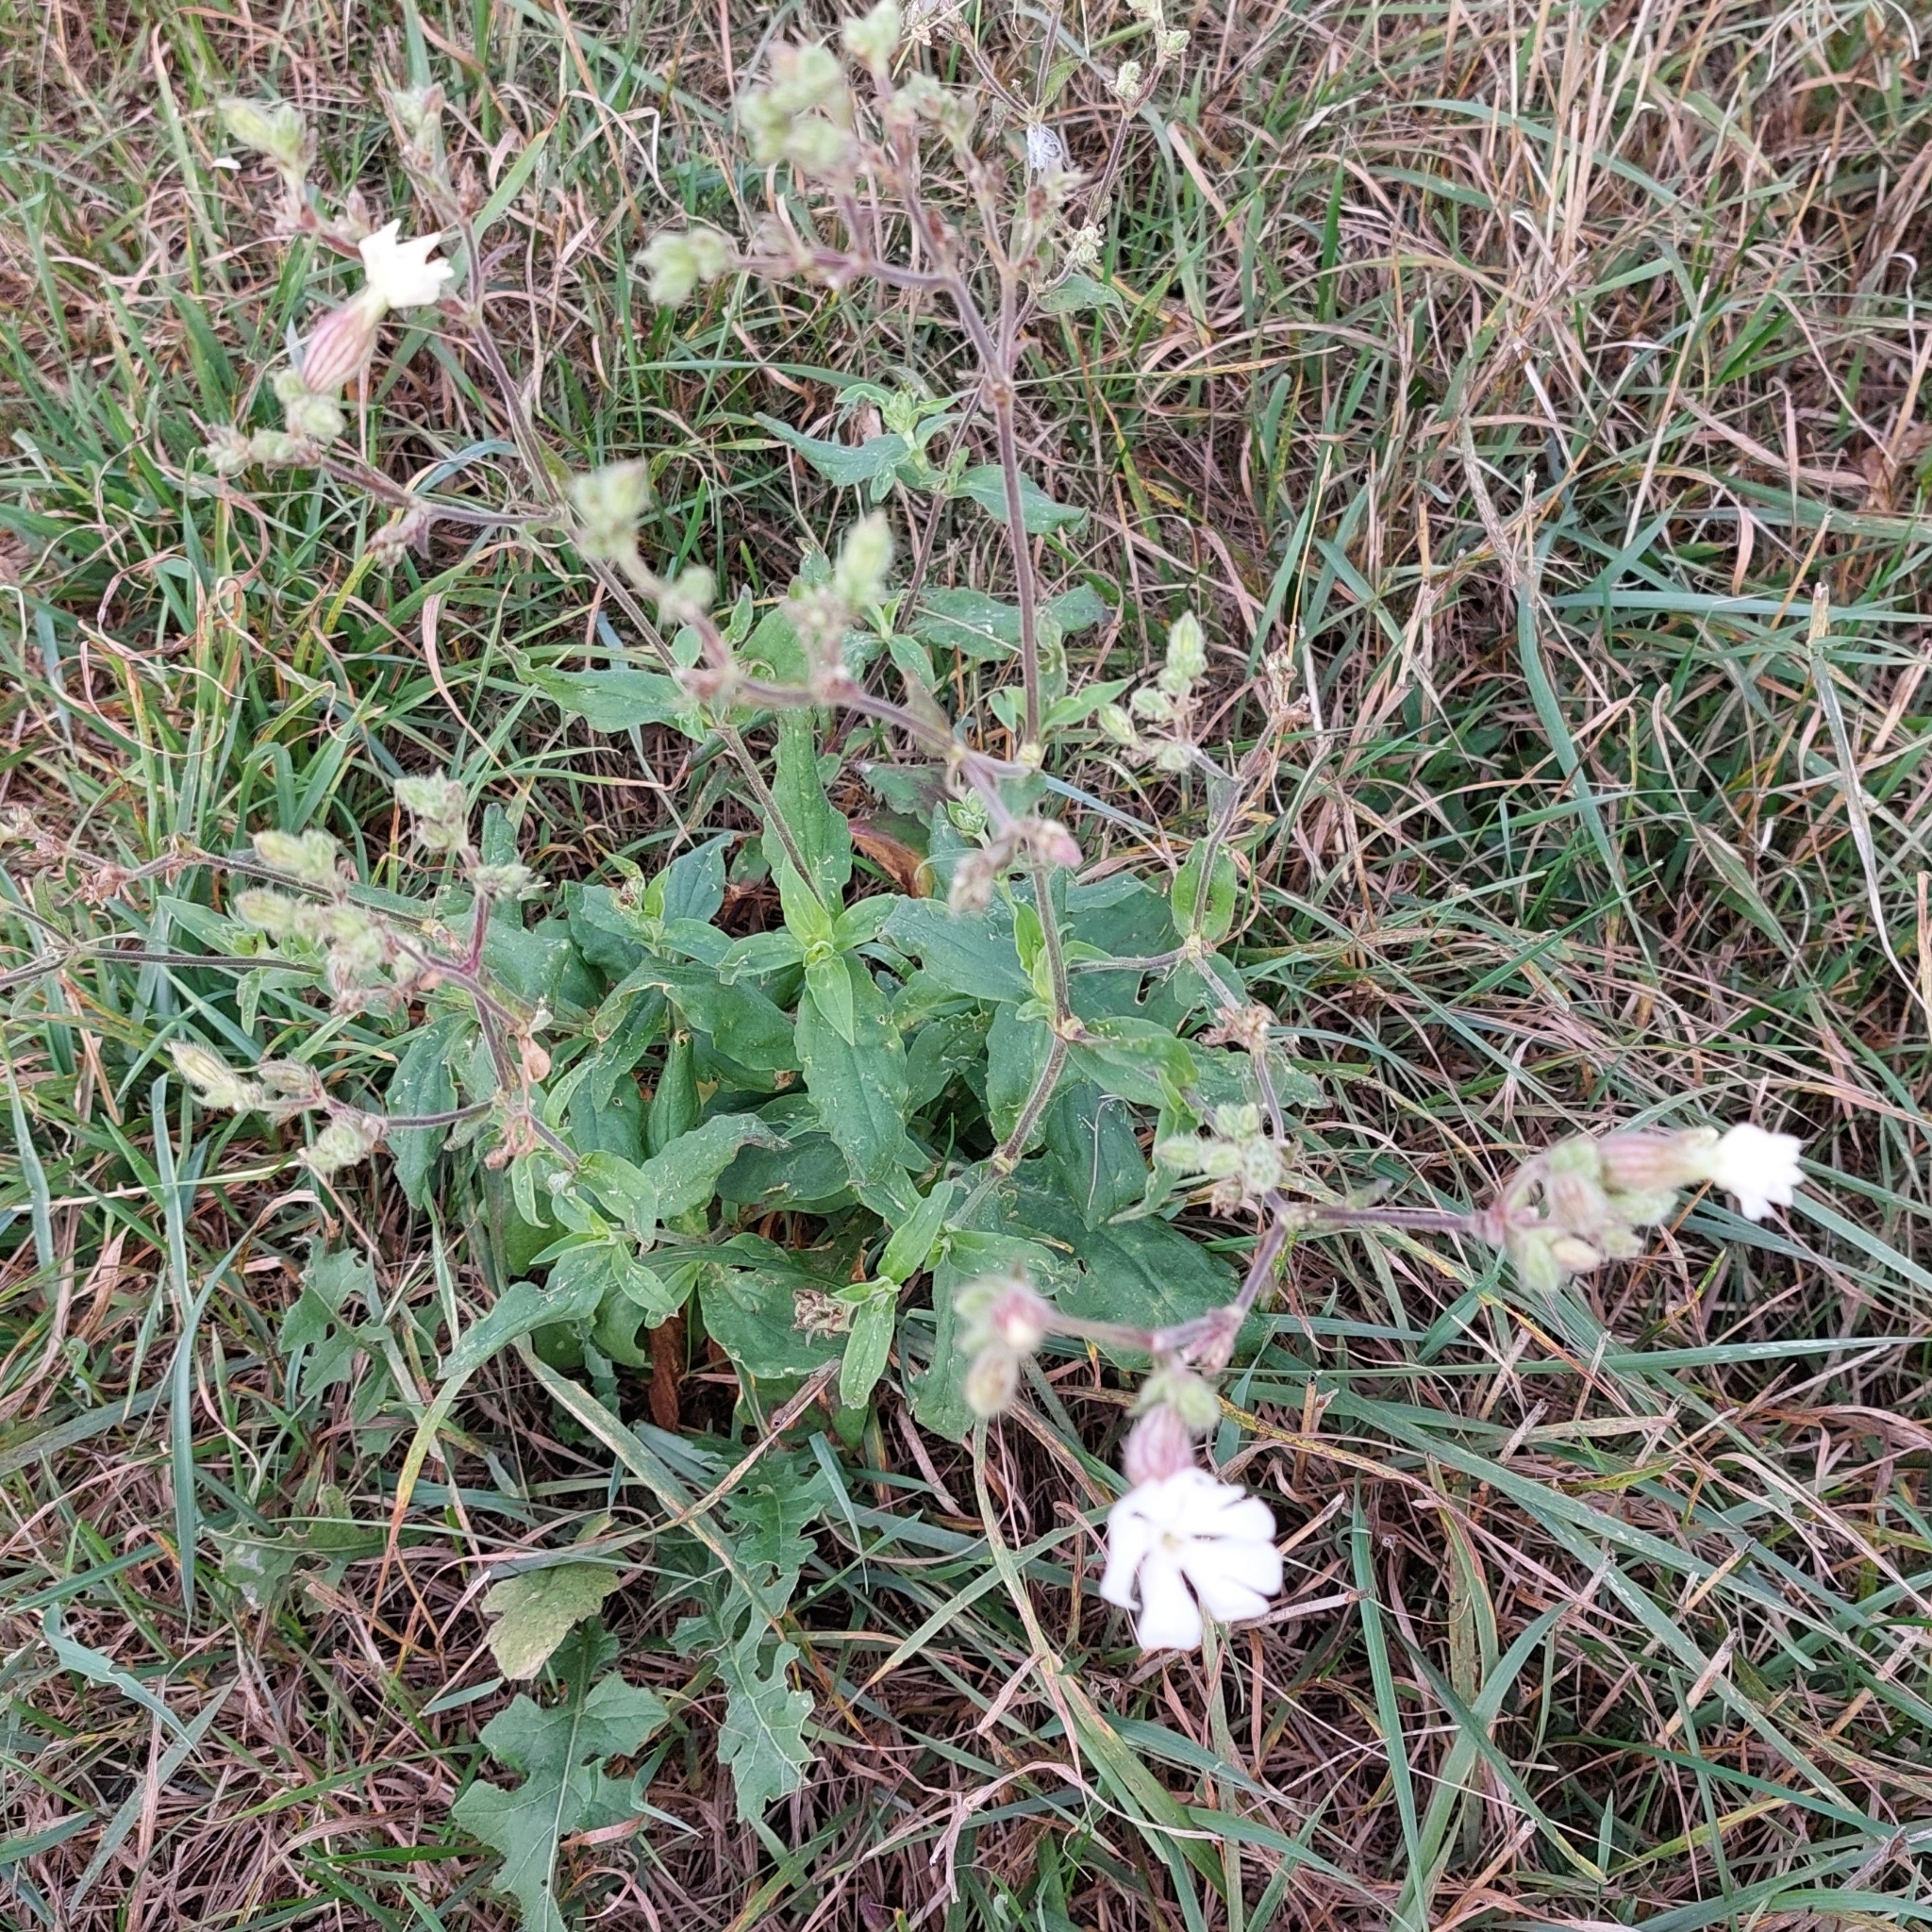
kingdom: Plantae
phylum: Tracheophyta
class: Magnoliopsida
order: Caryophyllales
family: Caryophyllaceae
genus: Silene
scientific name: Silene latifolia
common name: White campion
